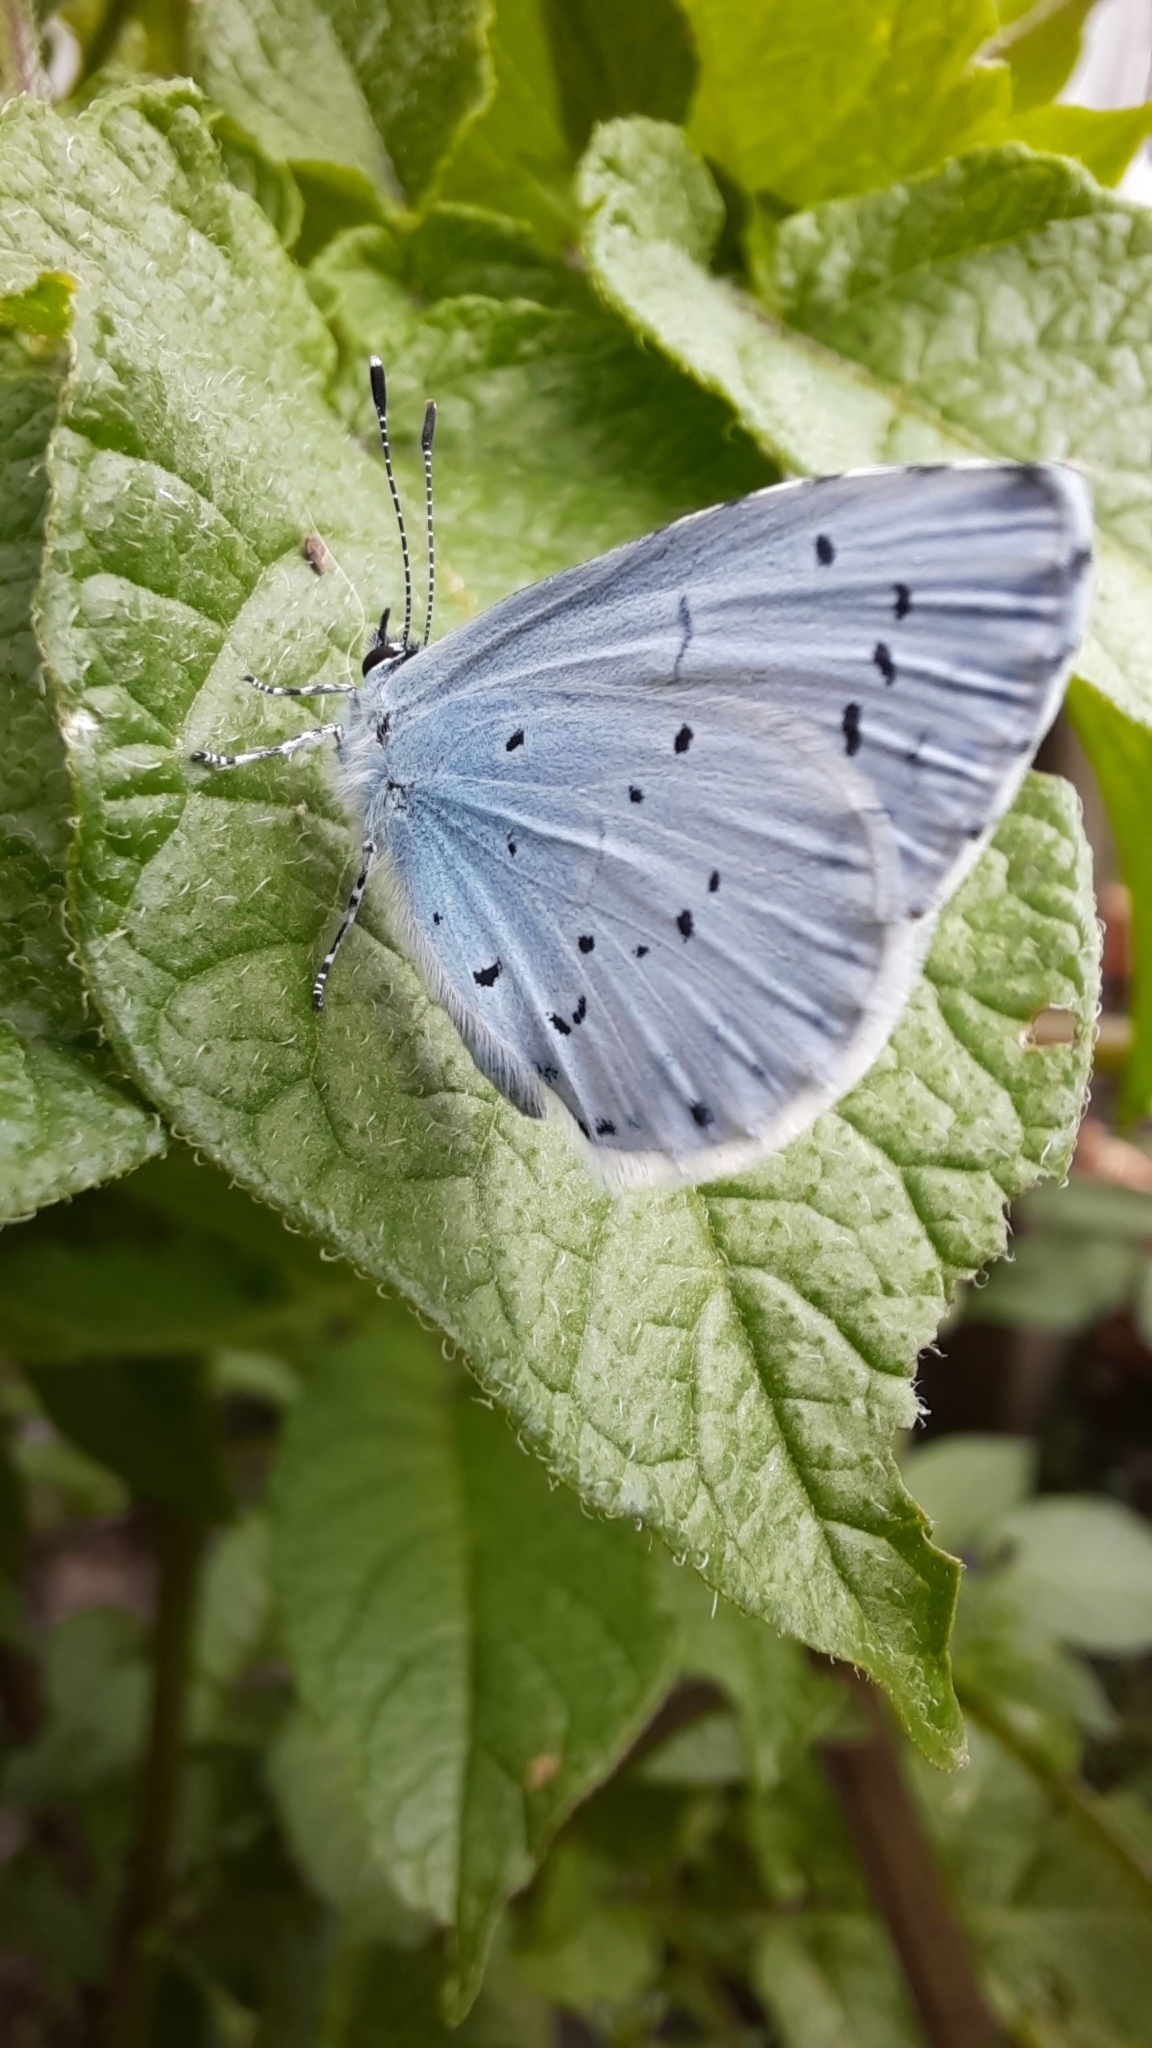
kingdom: Animalia
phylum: Arthropoda
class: Insecta
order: Lepidoptera
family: Lycaenidae
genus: Celastrina
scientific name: Celastrina argiolus
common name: Holly blue
